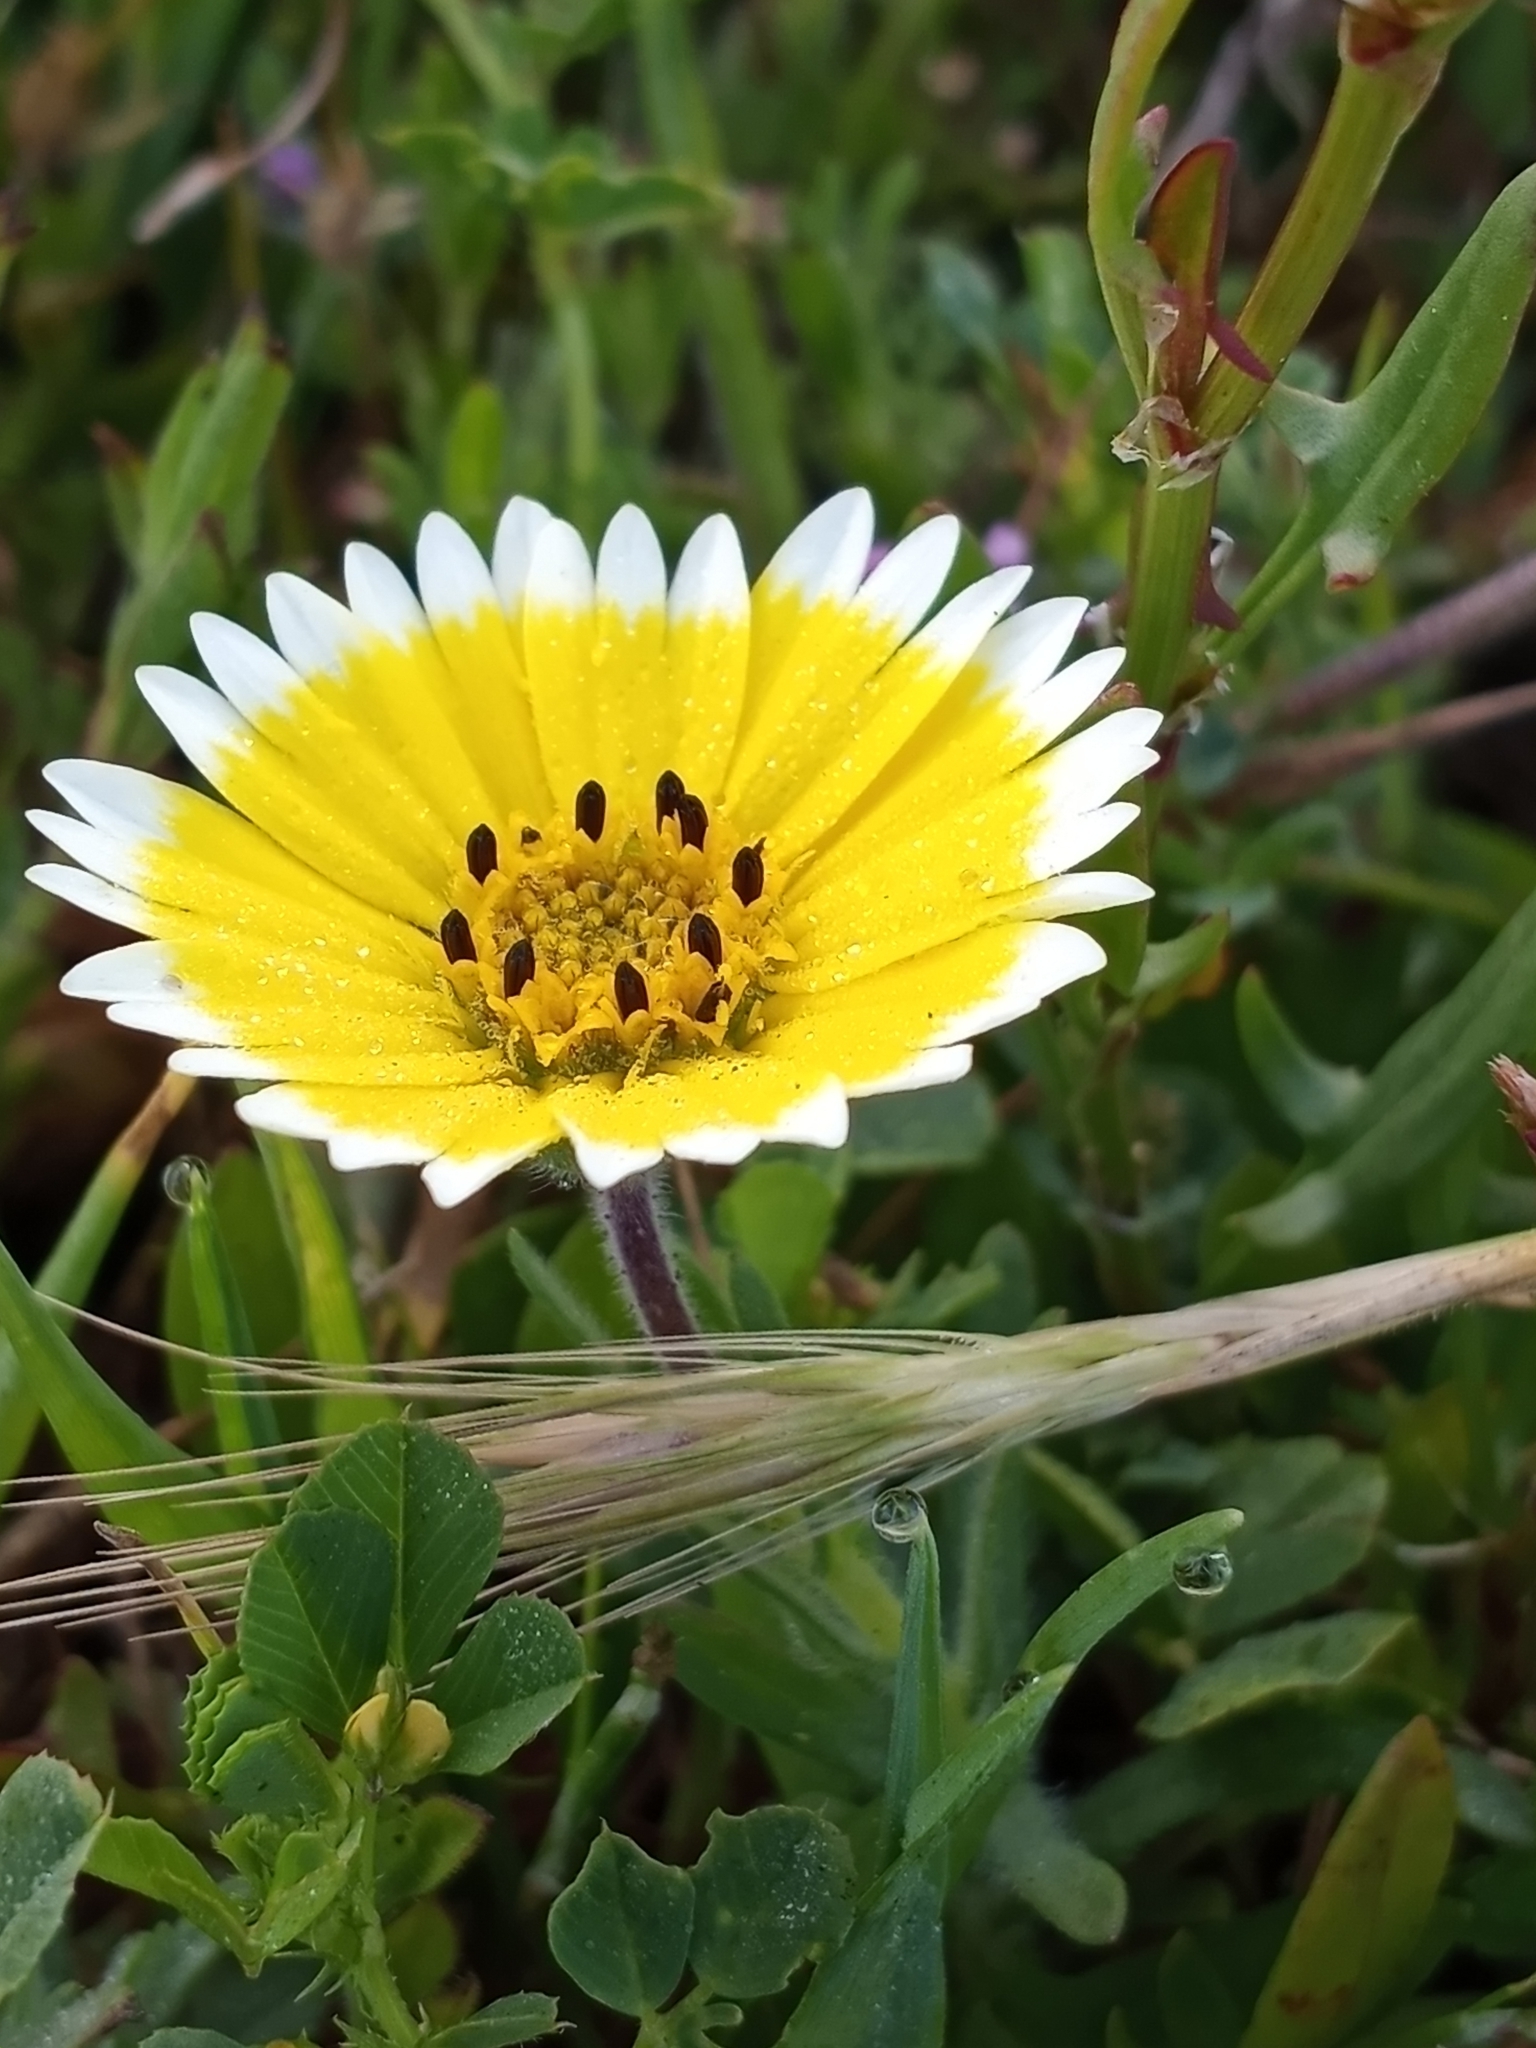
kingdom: Plantae
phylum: Tracheophyta
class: Magnoliopsida
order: Asterales
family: Asteraceae
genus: Layia
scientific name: Layia platyglossa
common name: Tidy-tips
